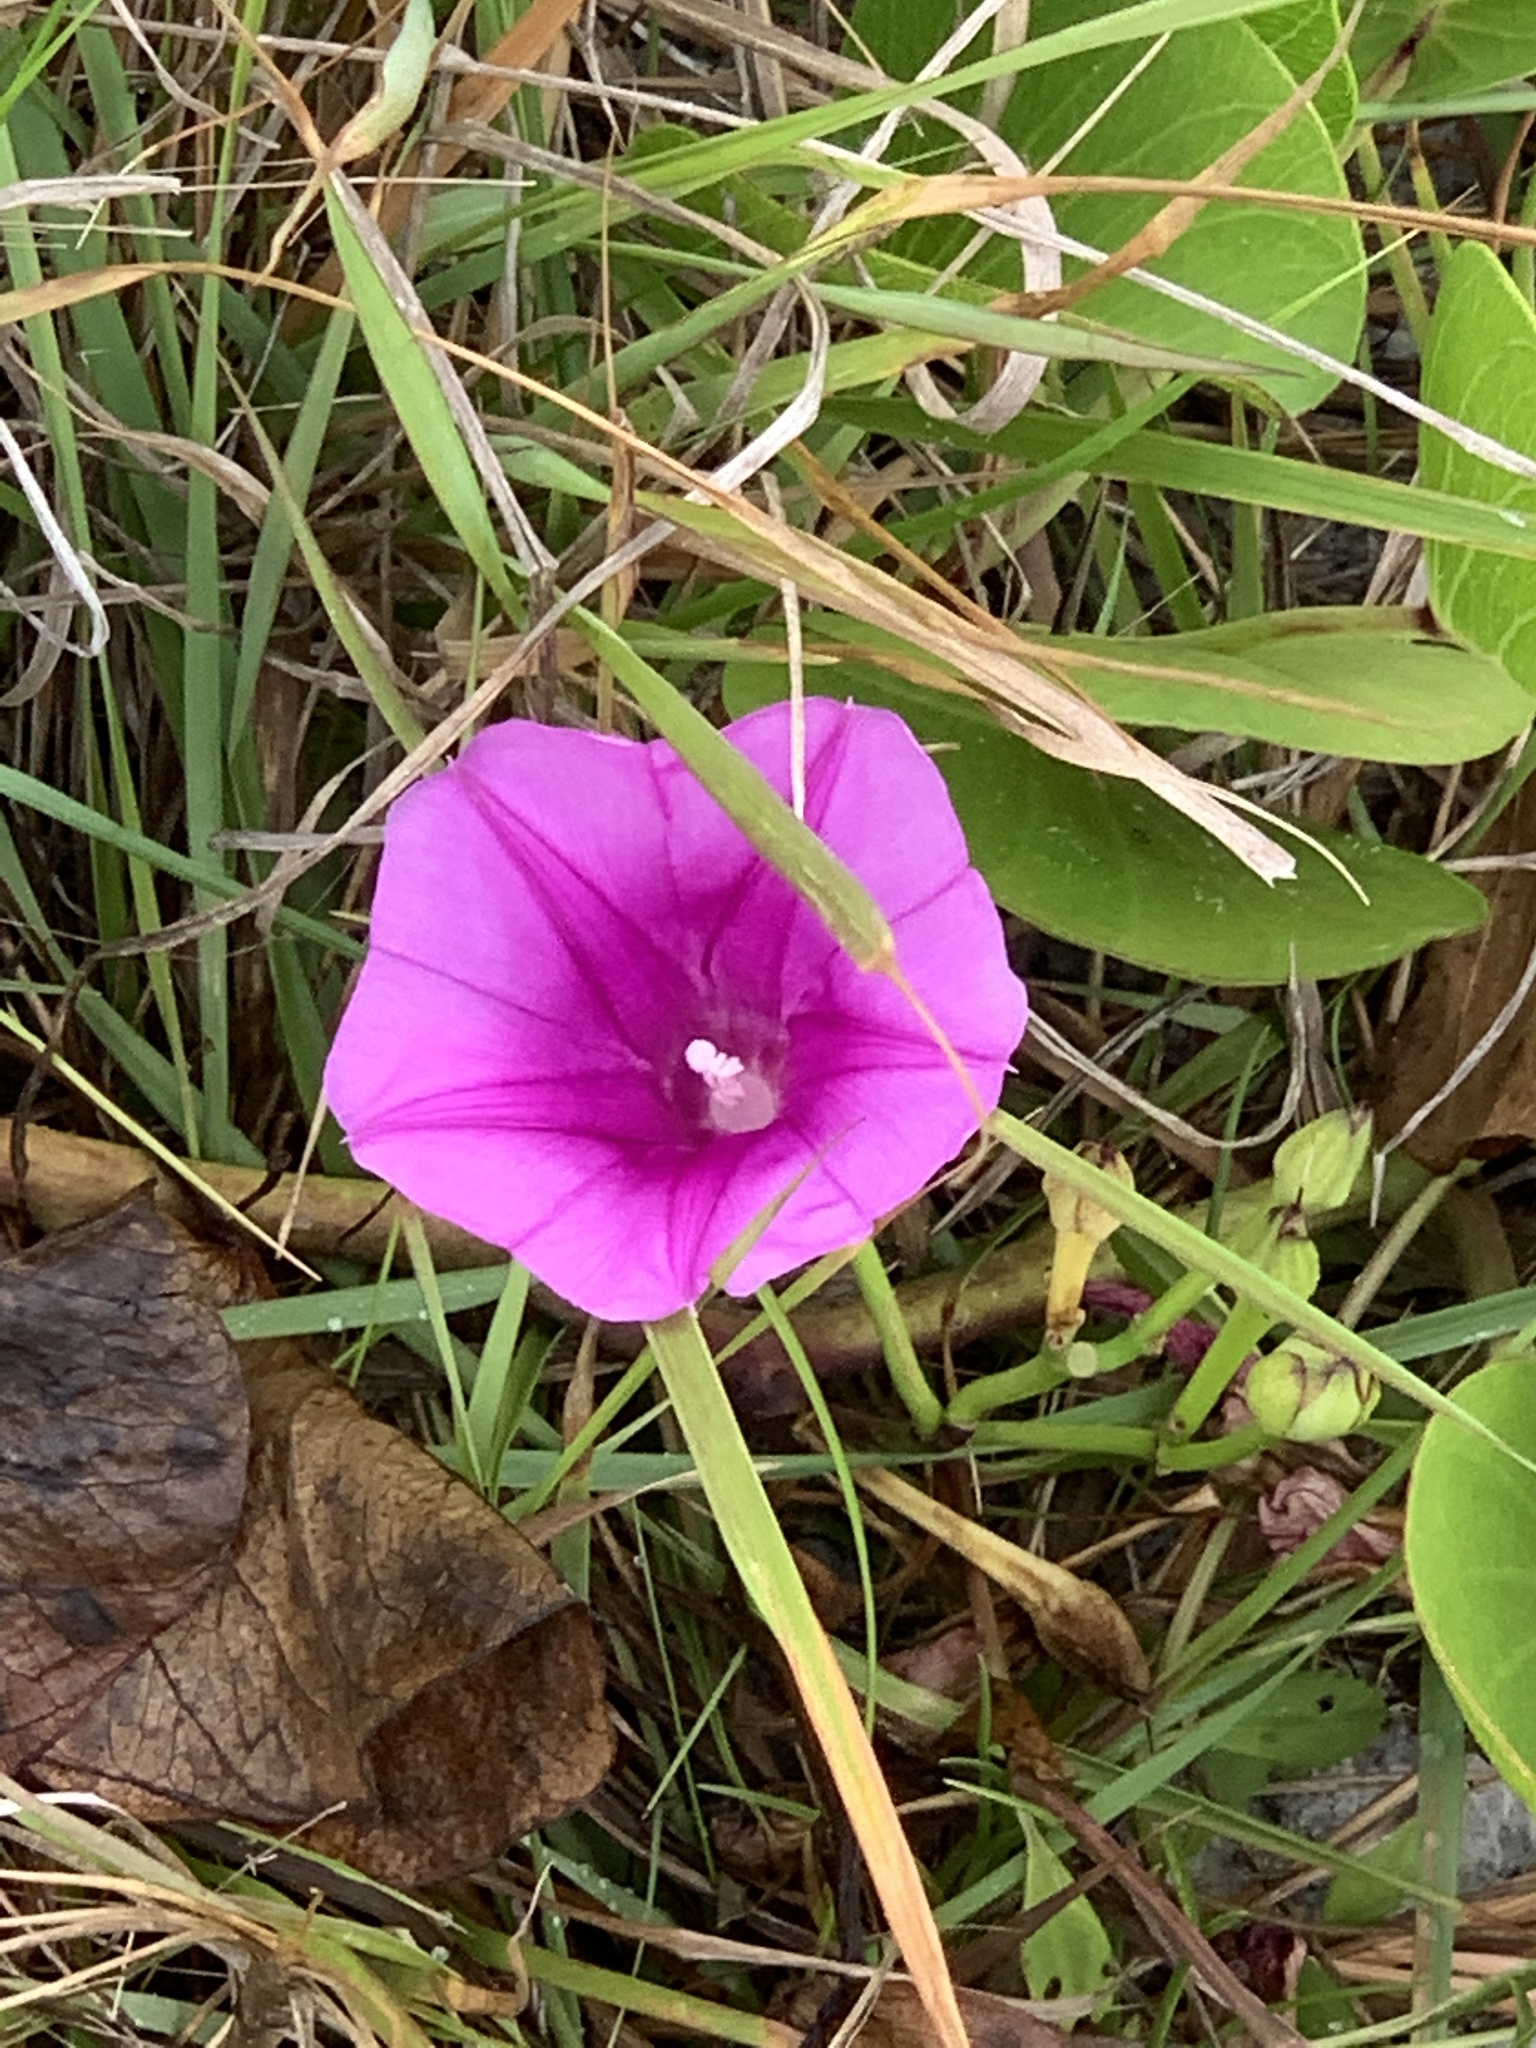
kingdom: Plantae
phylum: Tracheophyta
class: Magnoliopsida
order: Solanales
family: Convolvulaceae
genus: Ipomoea
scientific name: Ipomoea pes-caprae
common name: Beach morning glory
